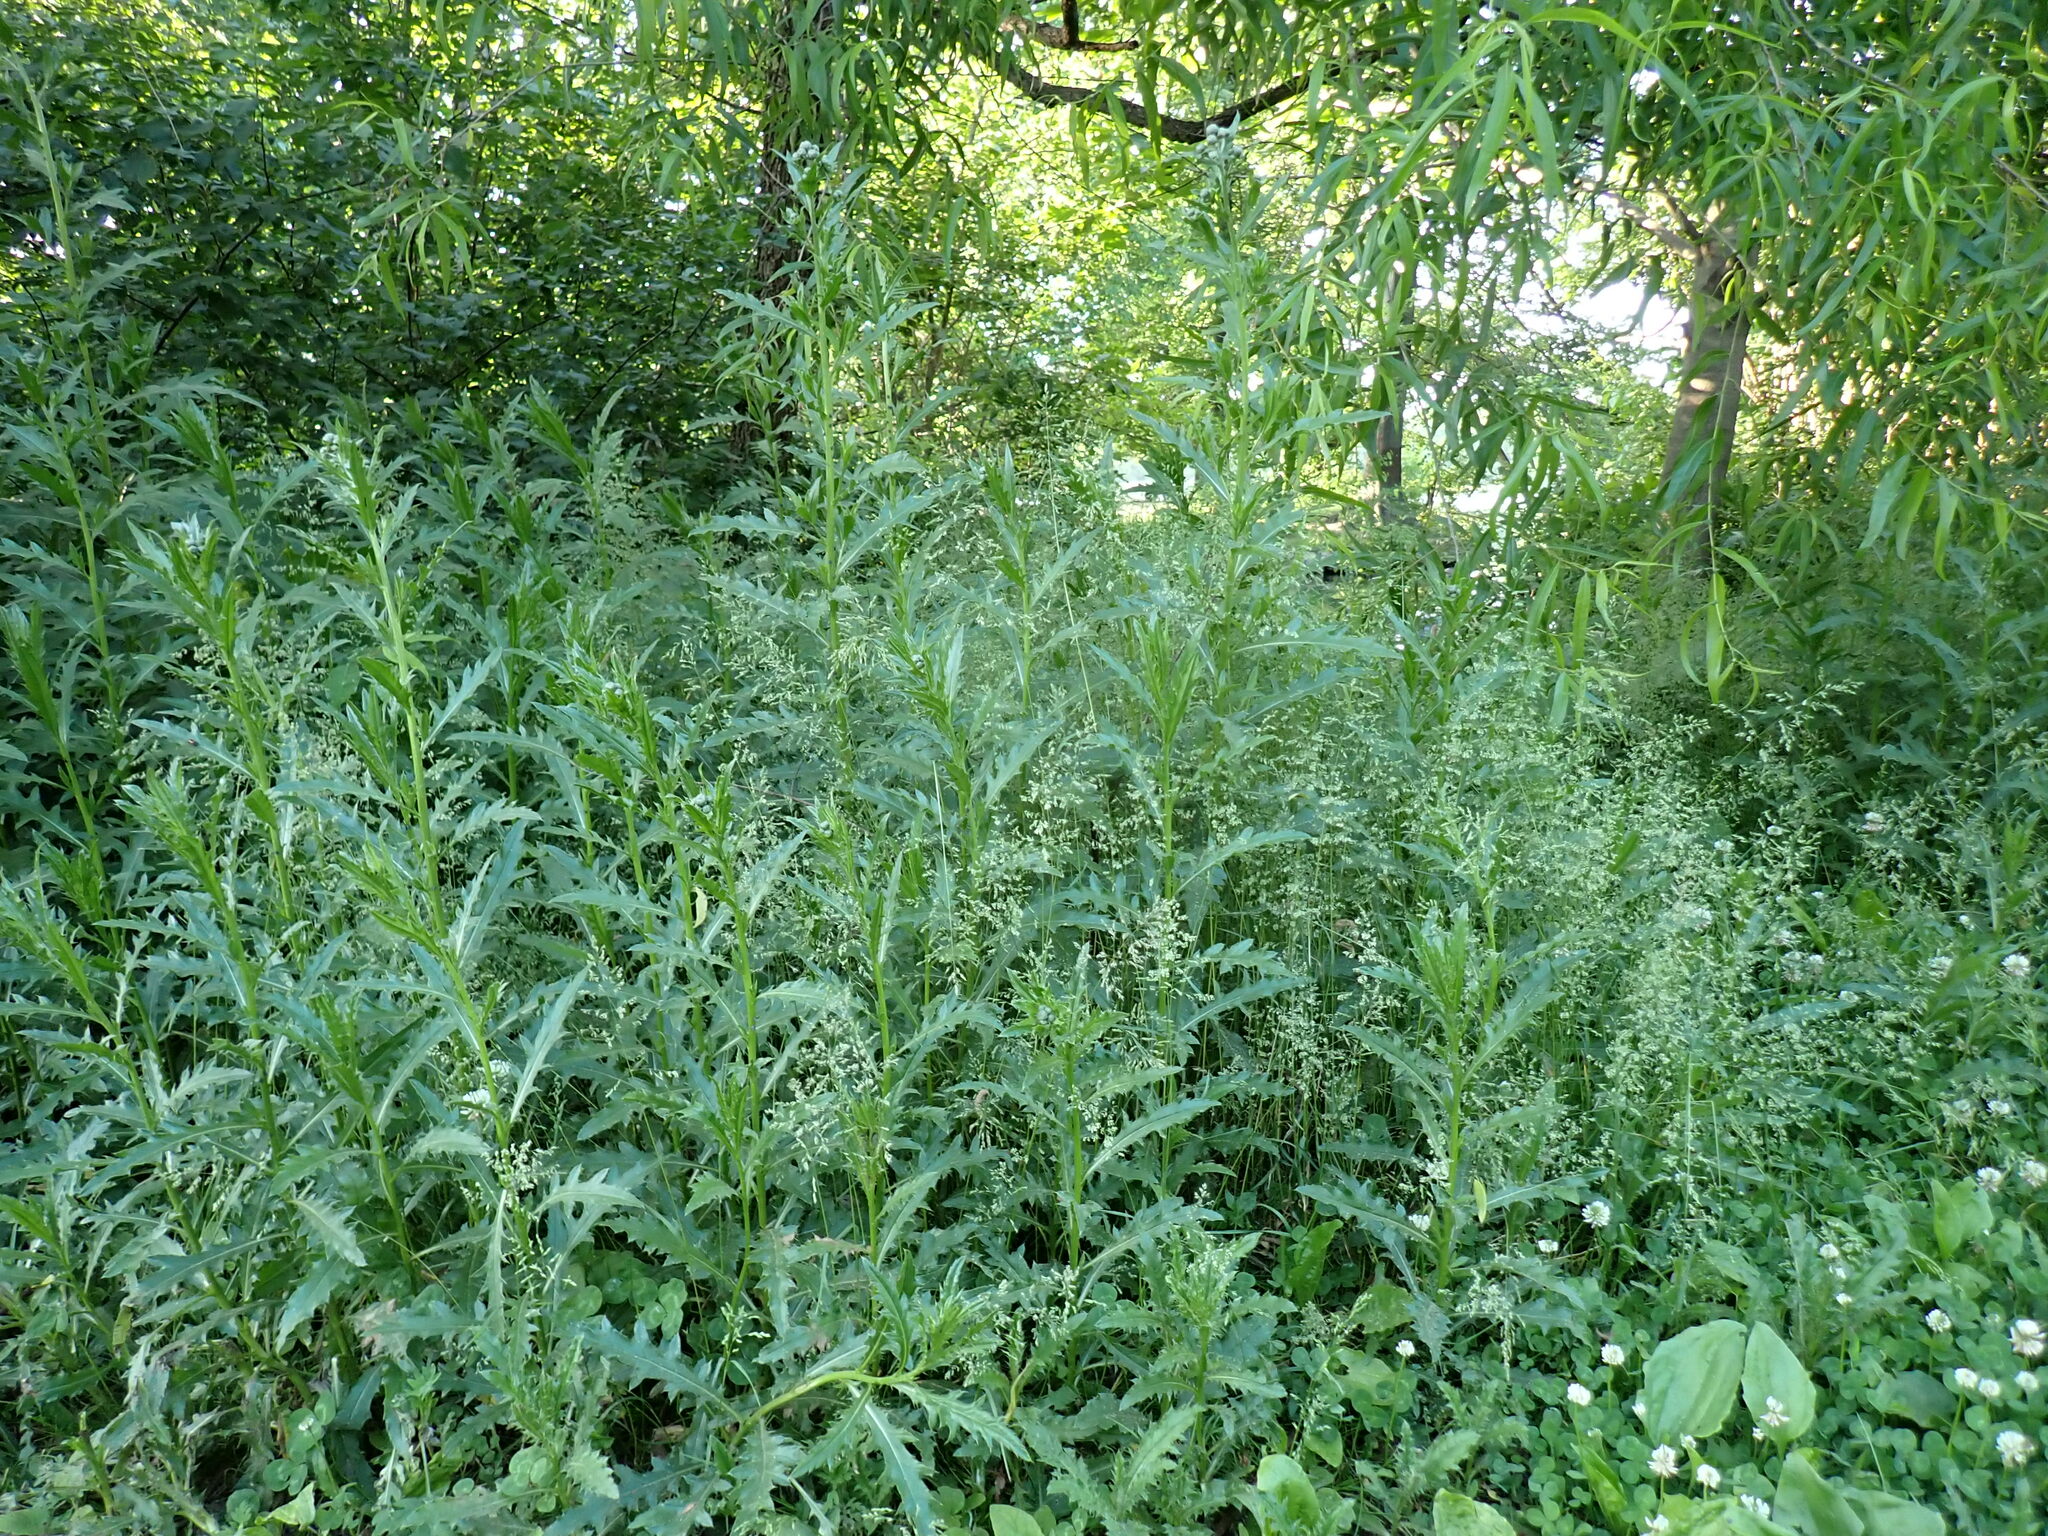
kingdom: Plantae
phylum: Tracheophyta
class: Magnoliopsida
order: Asterales
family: Asteraceae
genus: Cirsium
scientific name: Cirsium arvense
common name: Creeping thistle
